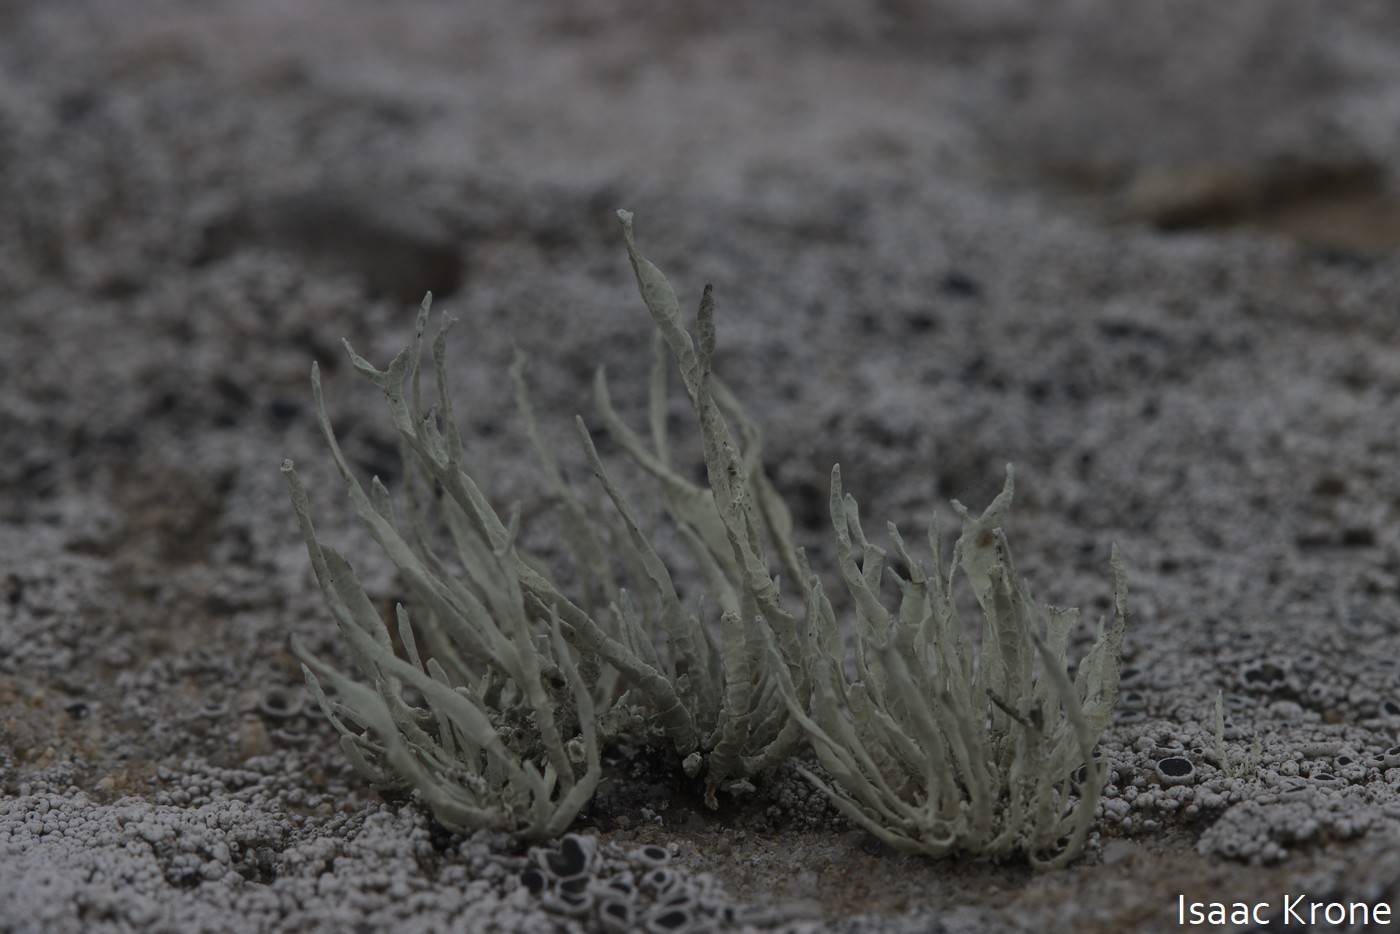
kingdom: Fungi
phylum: Ascomycota
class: Lecanoromycetes
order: Lecanorales
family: Ramalinaceae
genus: Niebla
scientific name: Niebla homalea
